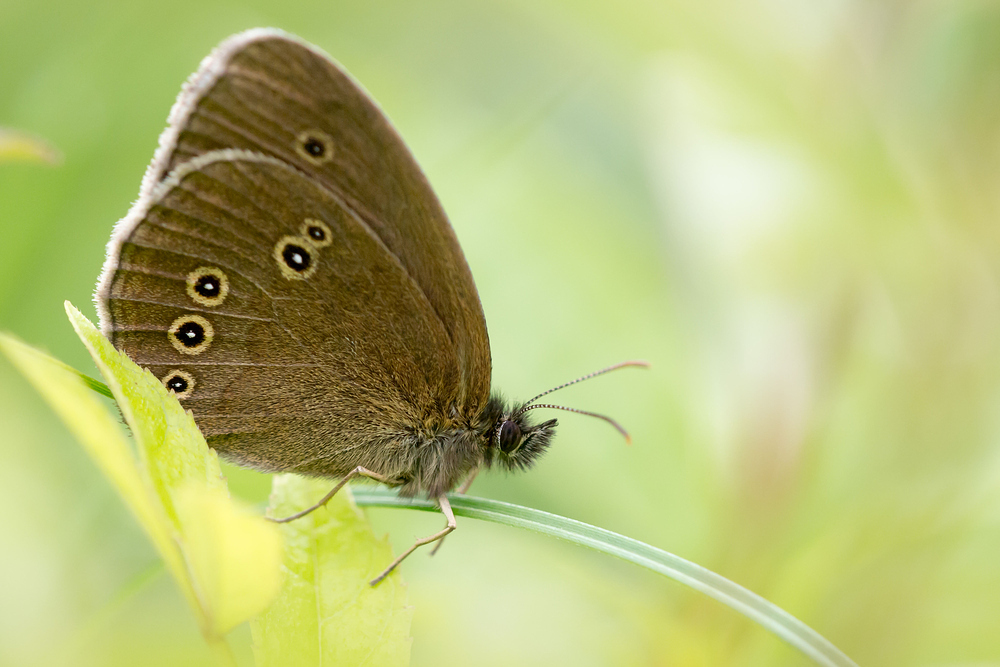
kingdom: Animalia
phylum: Arthropoda
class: Insecta
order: Lepidoptera
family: Nymphalidae
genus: Aphantopus
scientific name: Aphantopus hyperantus
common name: Ringlet
